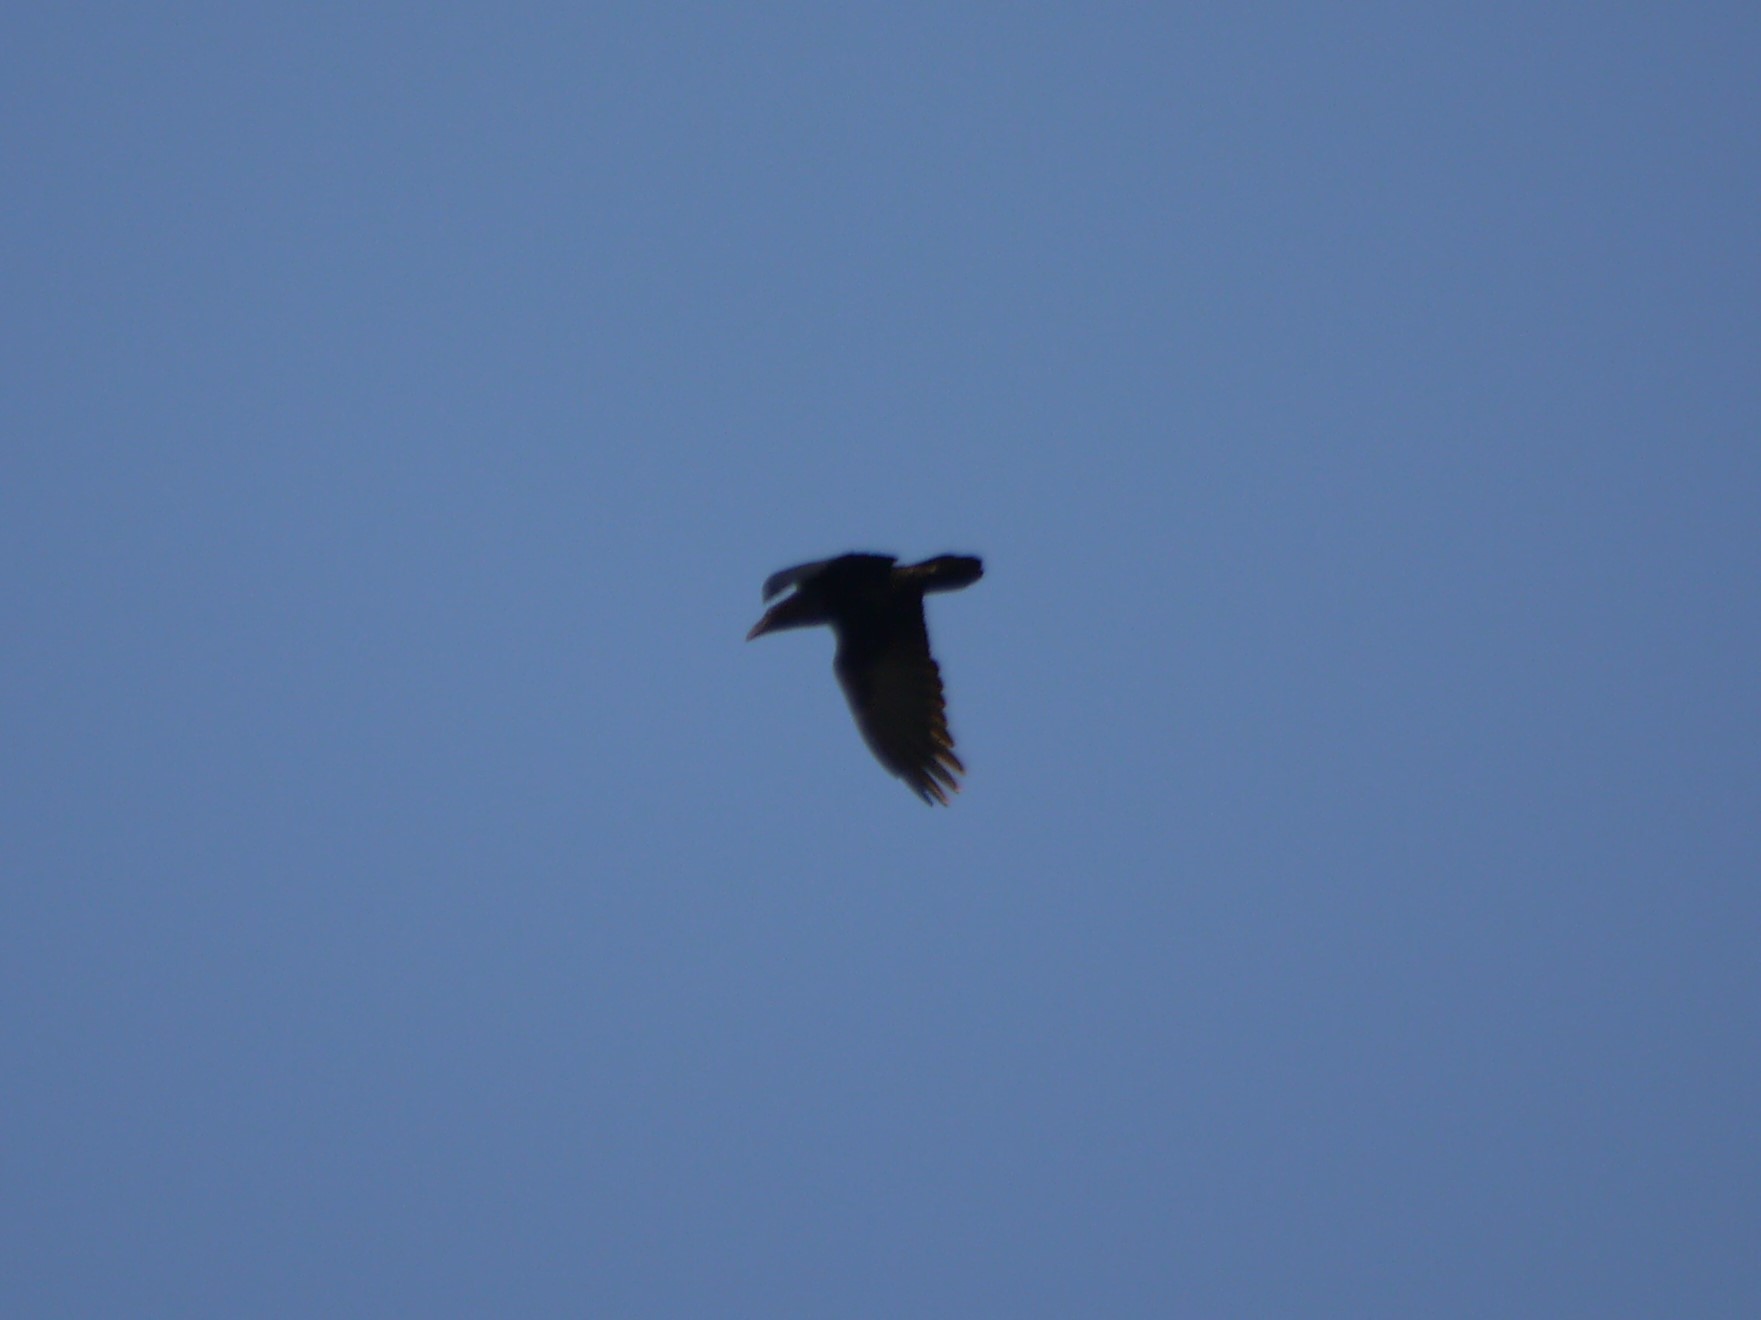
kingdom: Animalia
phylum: Chordata
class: Aves
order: Passeriformes
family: Corvidae
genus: Corvus
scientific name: Corvus corax
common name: Common raven
